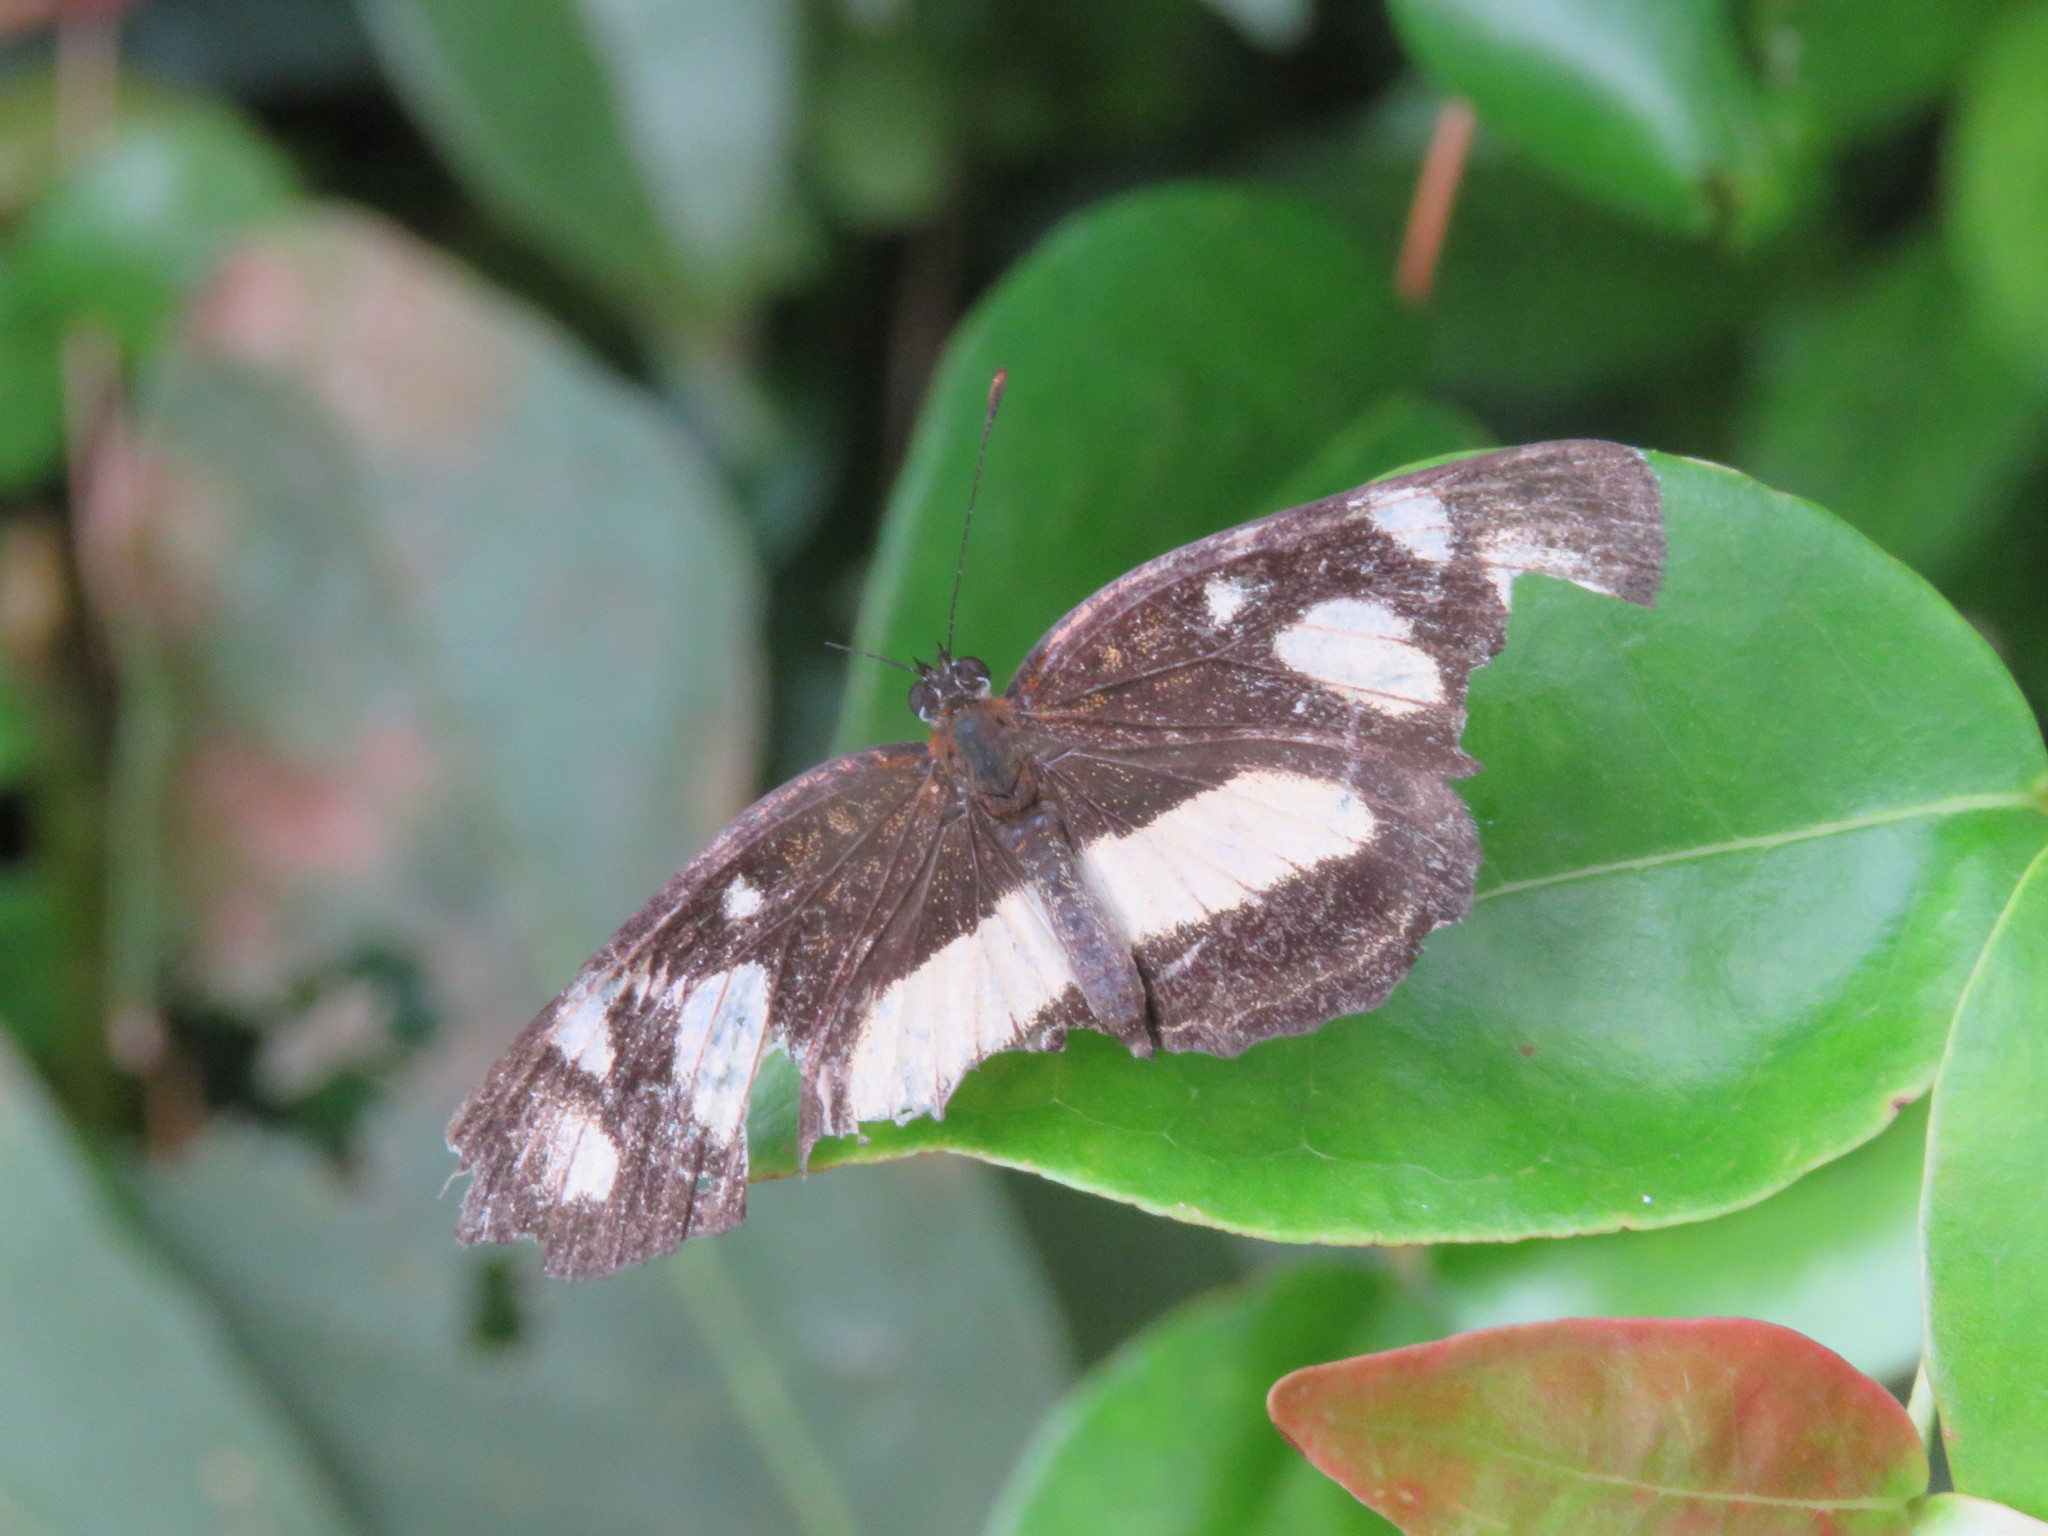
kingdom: Animalia
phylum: Arthropoda
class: Insecta
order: Lepidoptera
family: Nymphalidae
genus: Eresia
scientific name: Eresia clio
